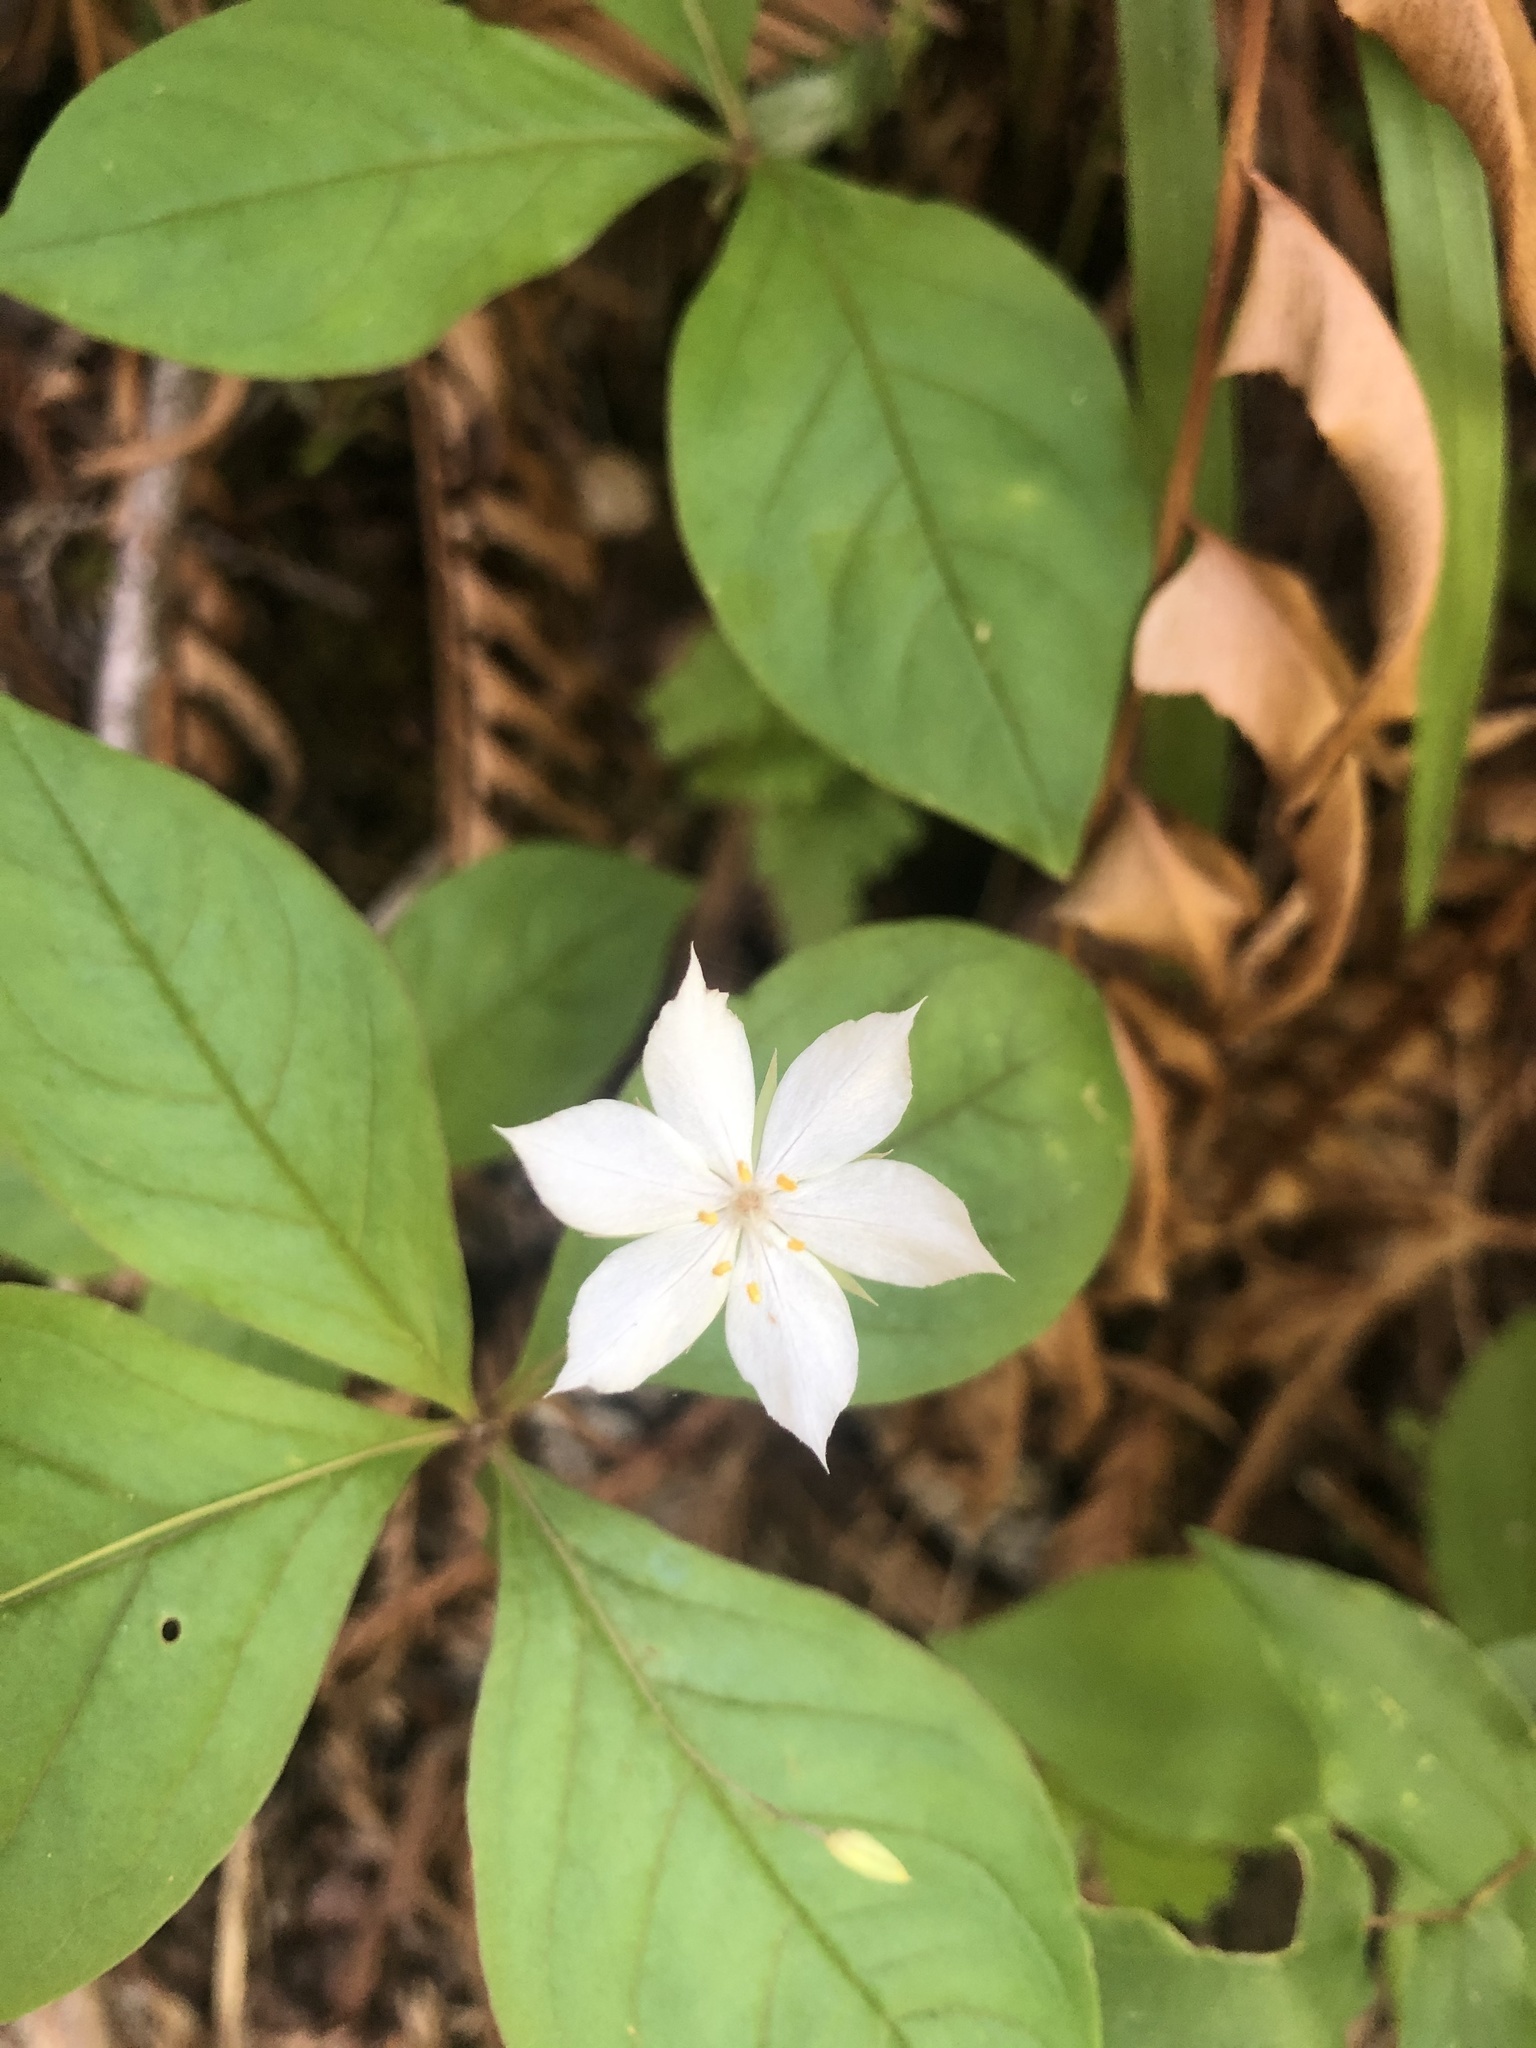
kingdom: Plantae
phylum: Tracheophyta
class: Magnoliopsida
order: Ericales
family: Primulaceae
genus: Lysimachia
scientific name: Lysimachia latifolia
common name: Pacific starflower
